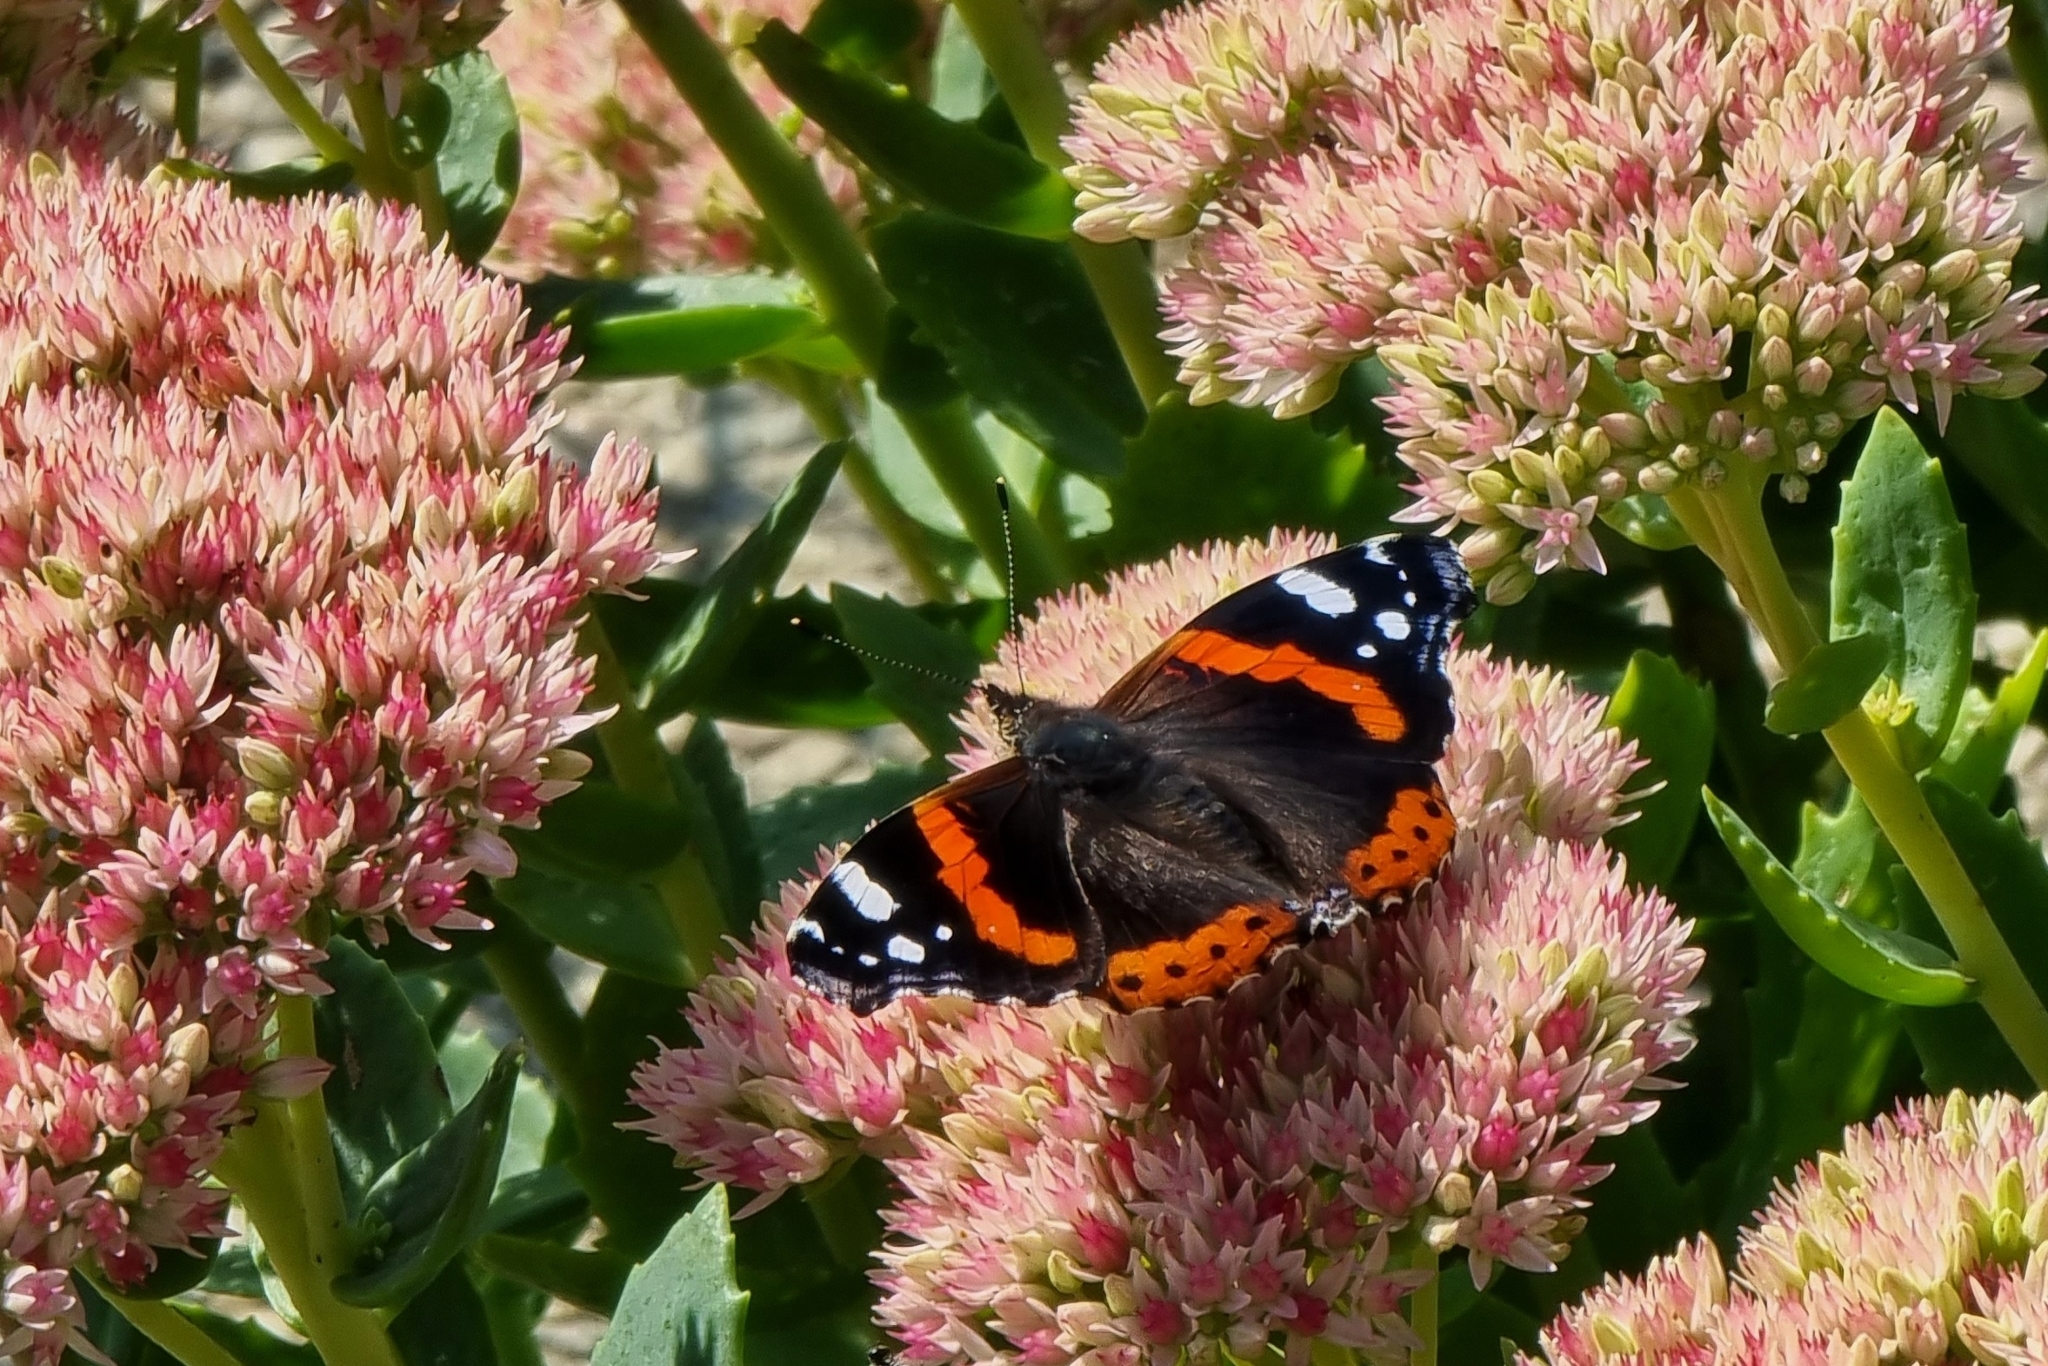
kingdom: Animalia
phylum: Arthropoda
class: Insecta
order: Lepidoptera
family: Nymphalidae
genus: Vanessa
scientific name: Vanessa atalanta
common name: Red admiral
